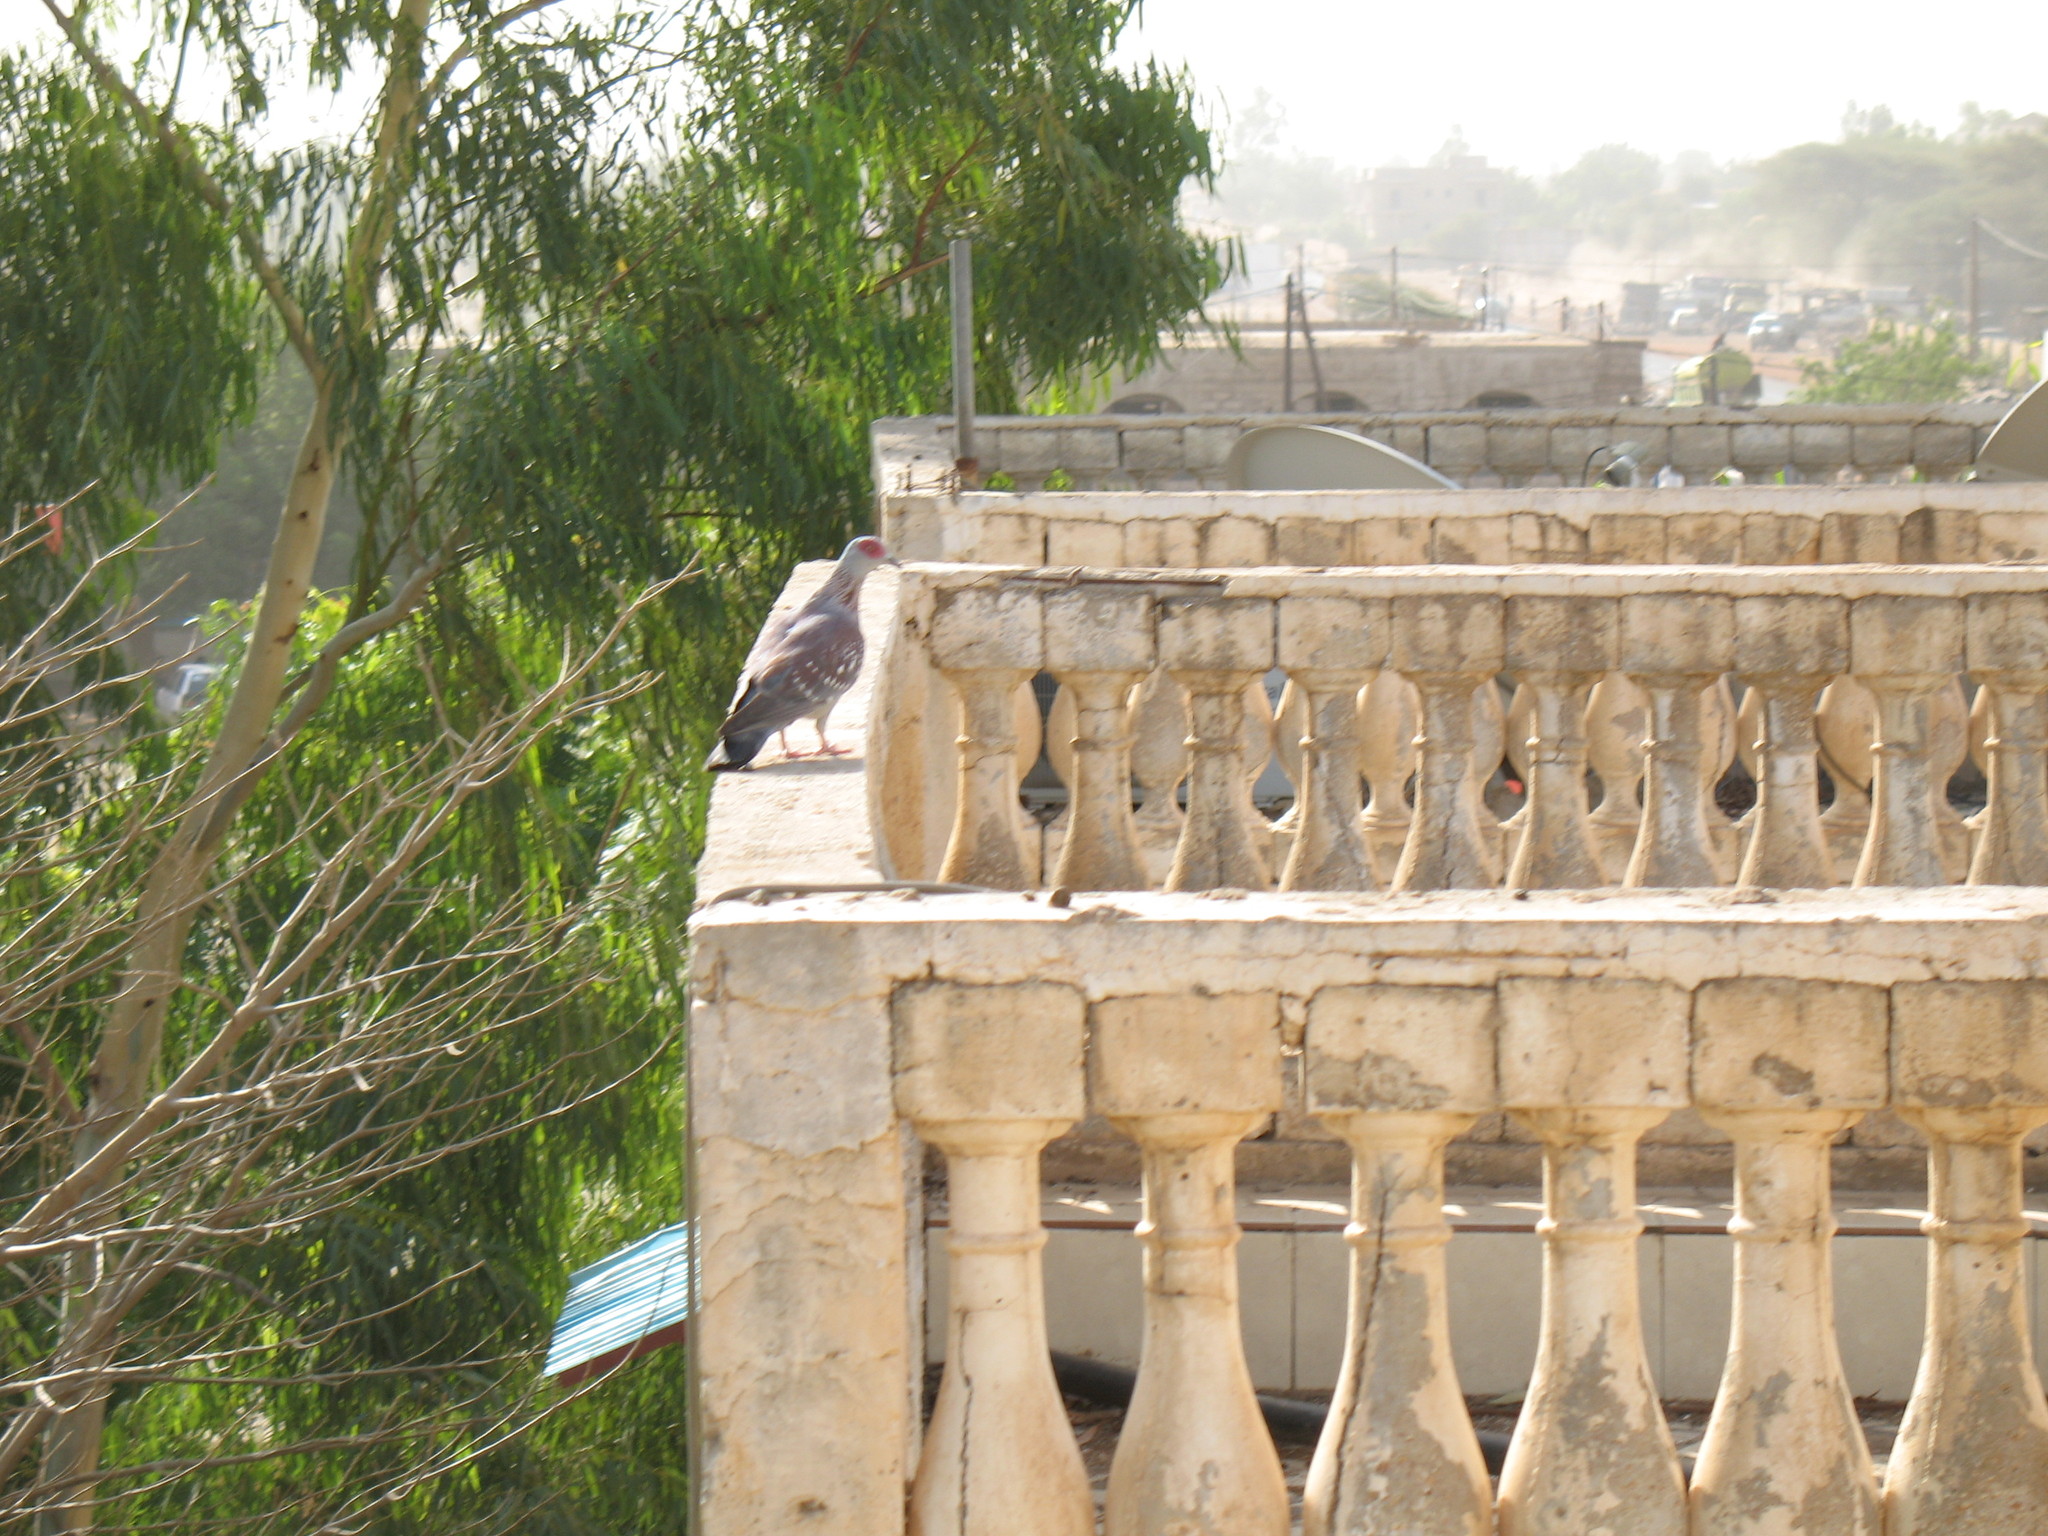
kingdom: Animalia
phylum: Chordata
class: Aves
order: Columbiformes
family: Columbidae
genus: Columba
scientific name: Columba guinea
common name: Speckled pigeon
